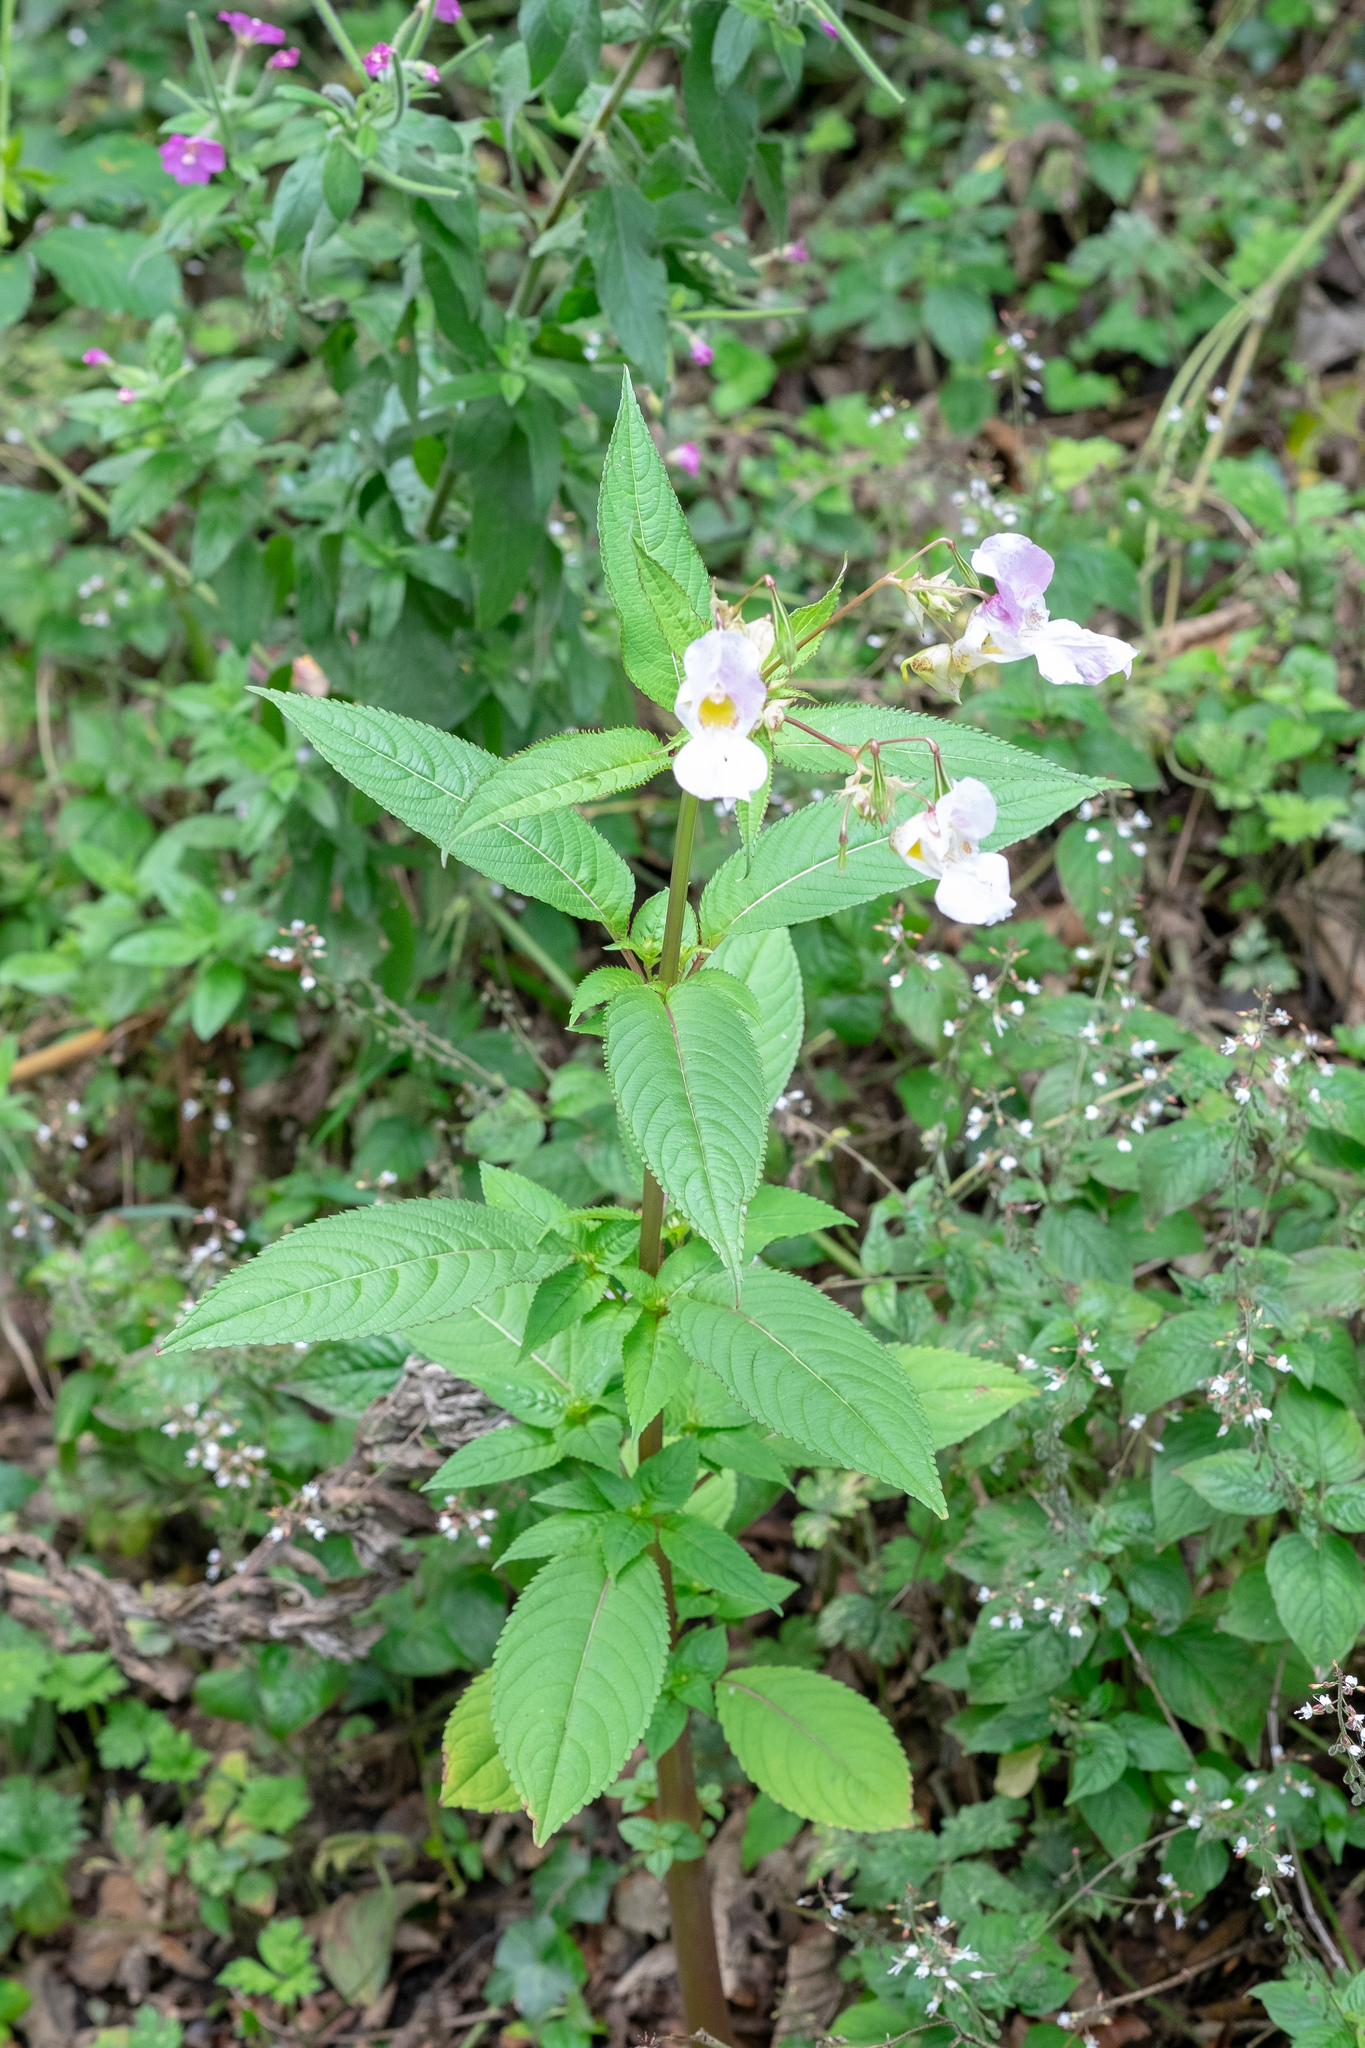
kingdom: Plantae
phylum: Tracheophyta
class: Magnoliopsida
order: Ericales
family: Balsaminaceae
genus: Impatiens
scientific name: Impatiens glandulifera
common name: Himalayan balsam
